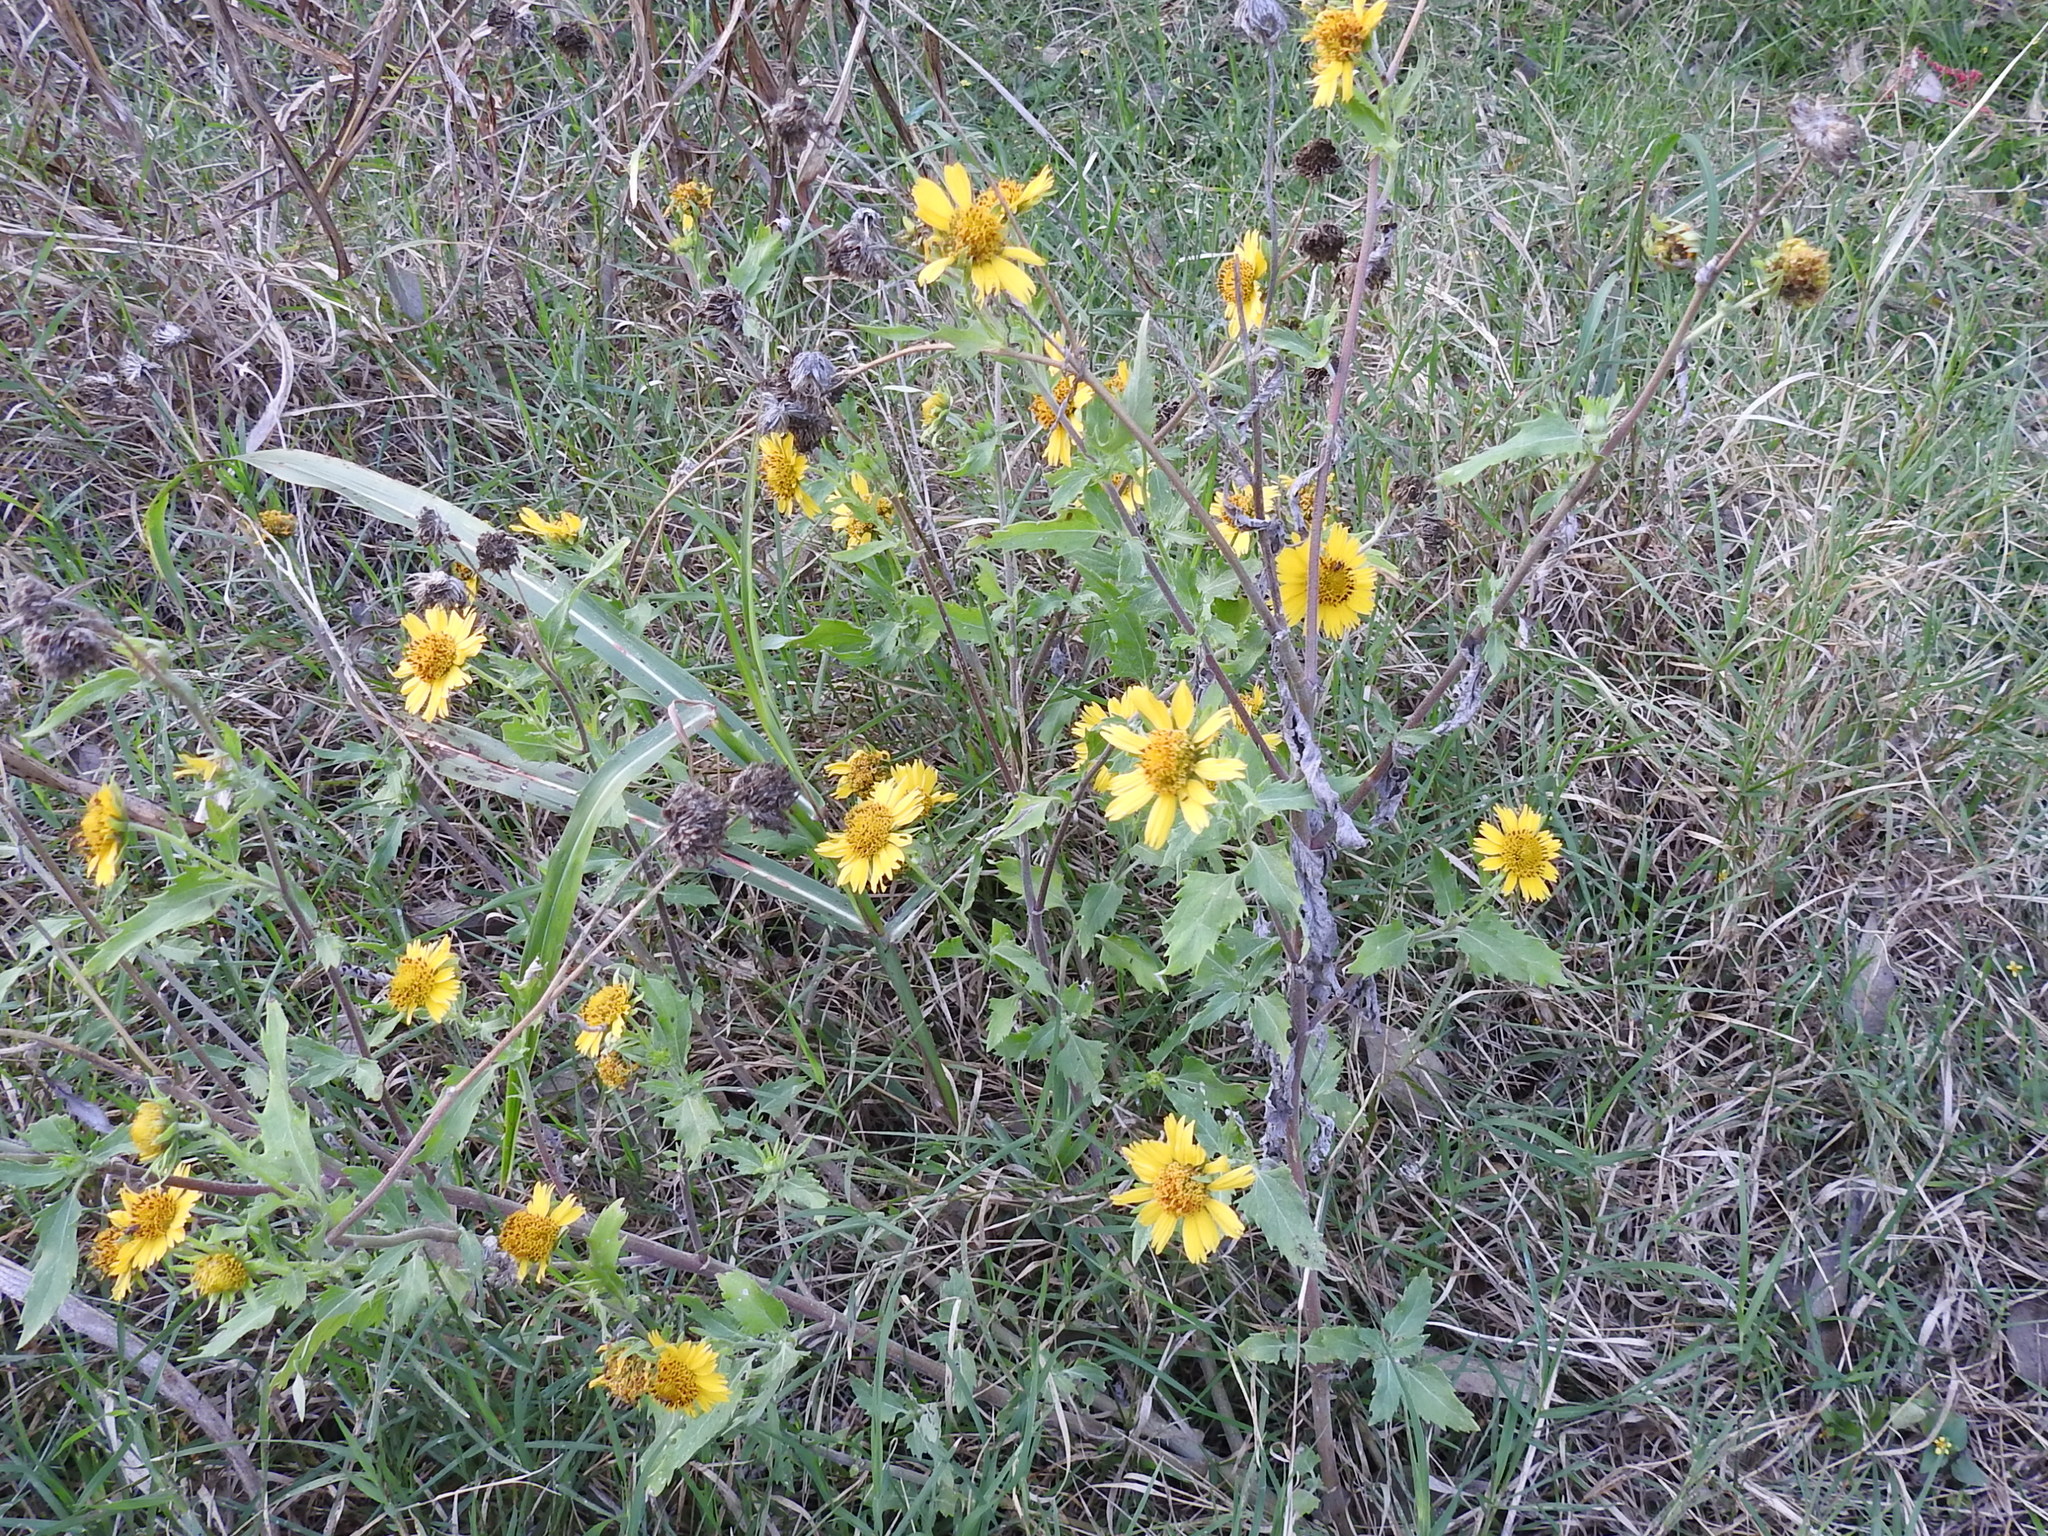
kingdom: Plantae
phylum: Tracheophyta
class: Magnoliopsida
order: Asterales
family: Asteraceae
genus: Verbesina
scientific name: Verbesina encelioides
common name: Golden crownbeard
